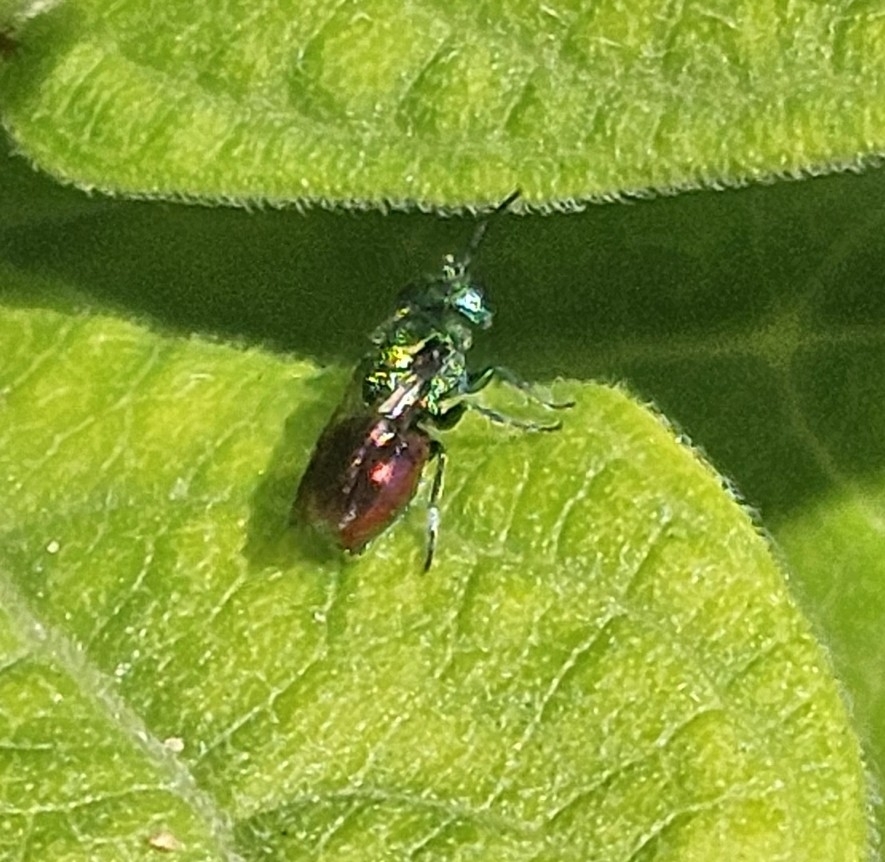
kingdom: Animalia
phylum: Arthropoda
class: Insecta
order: Hymenoptera
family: Chrysididae
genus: Pseudomalus
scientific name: Pseudomalus auratus
